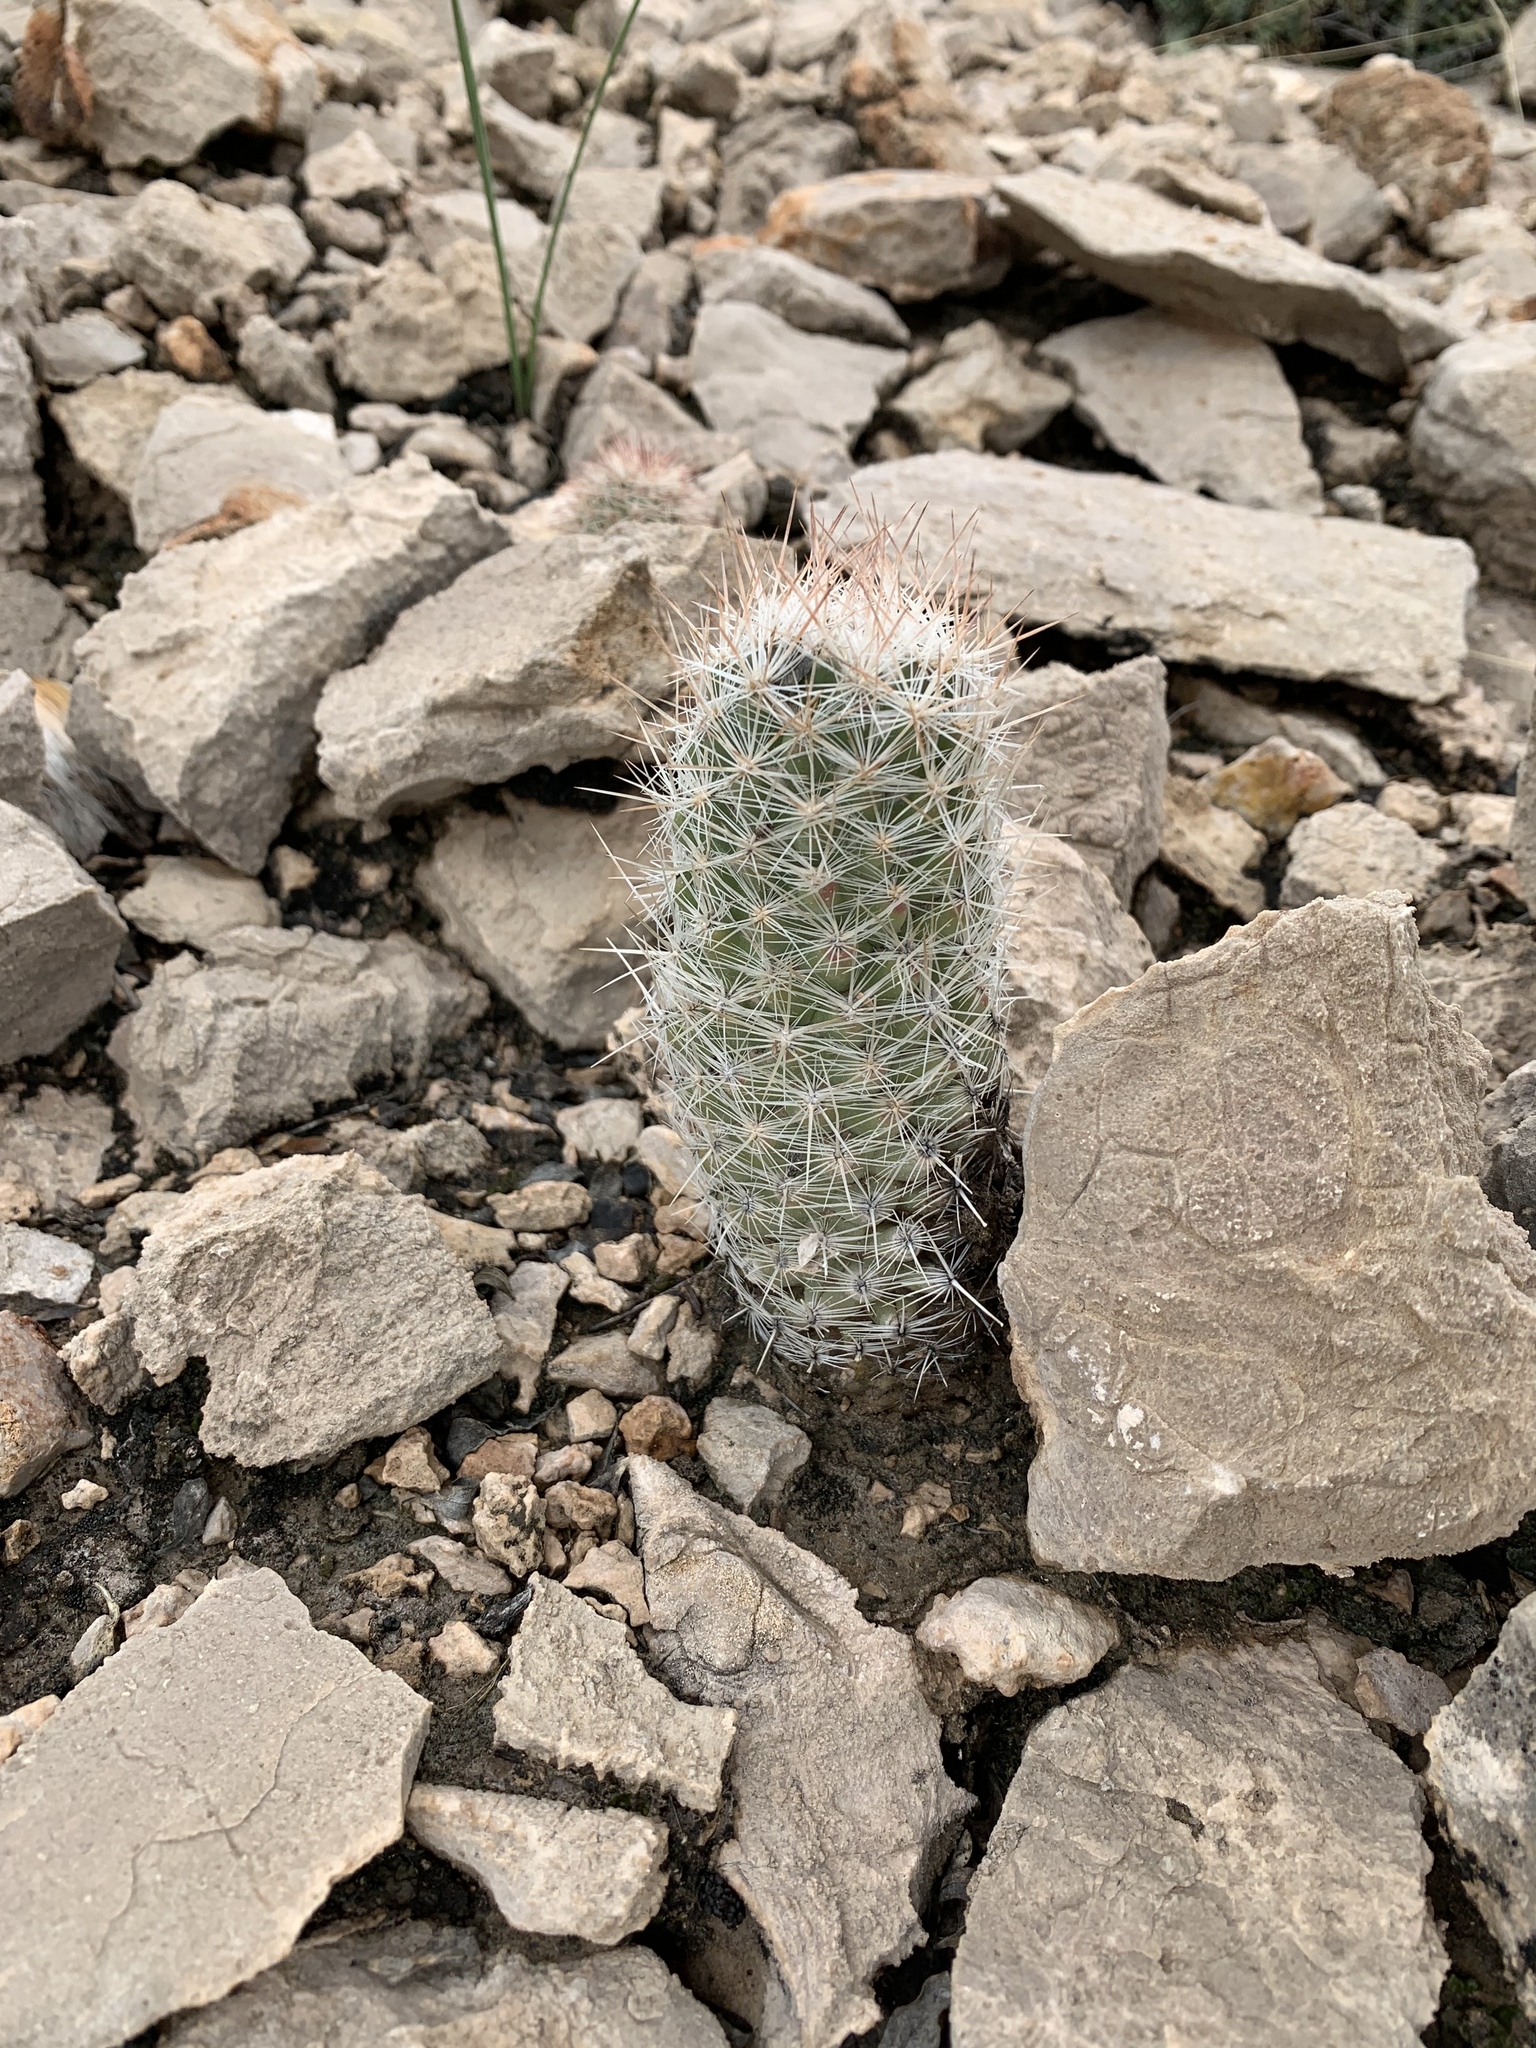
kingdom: Plantae
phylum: Tracheophyta
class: Magnoliopsida
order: Caryophyllales
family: Cactaceae
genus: Pelecyphora
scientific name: Pelecyphora tuberculosa
